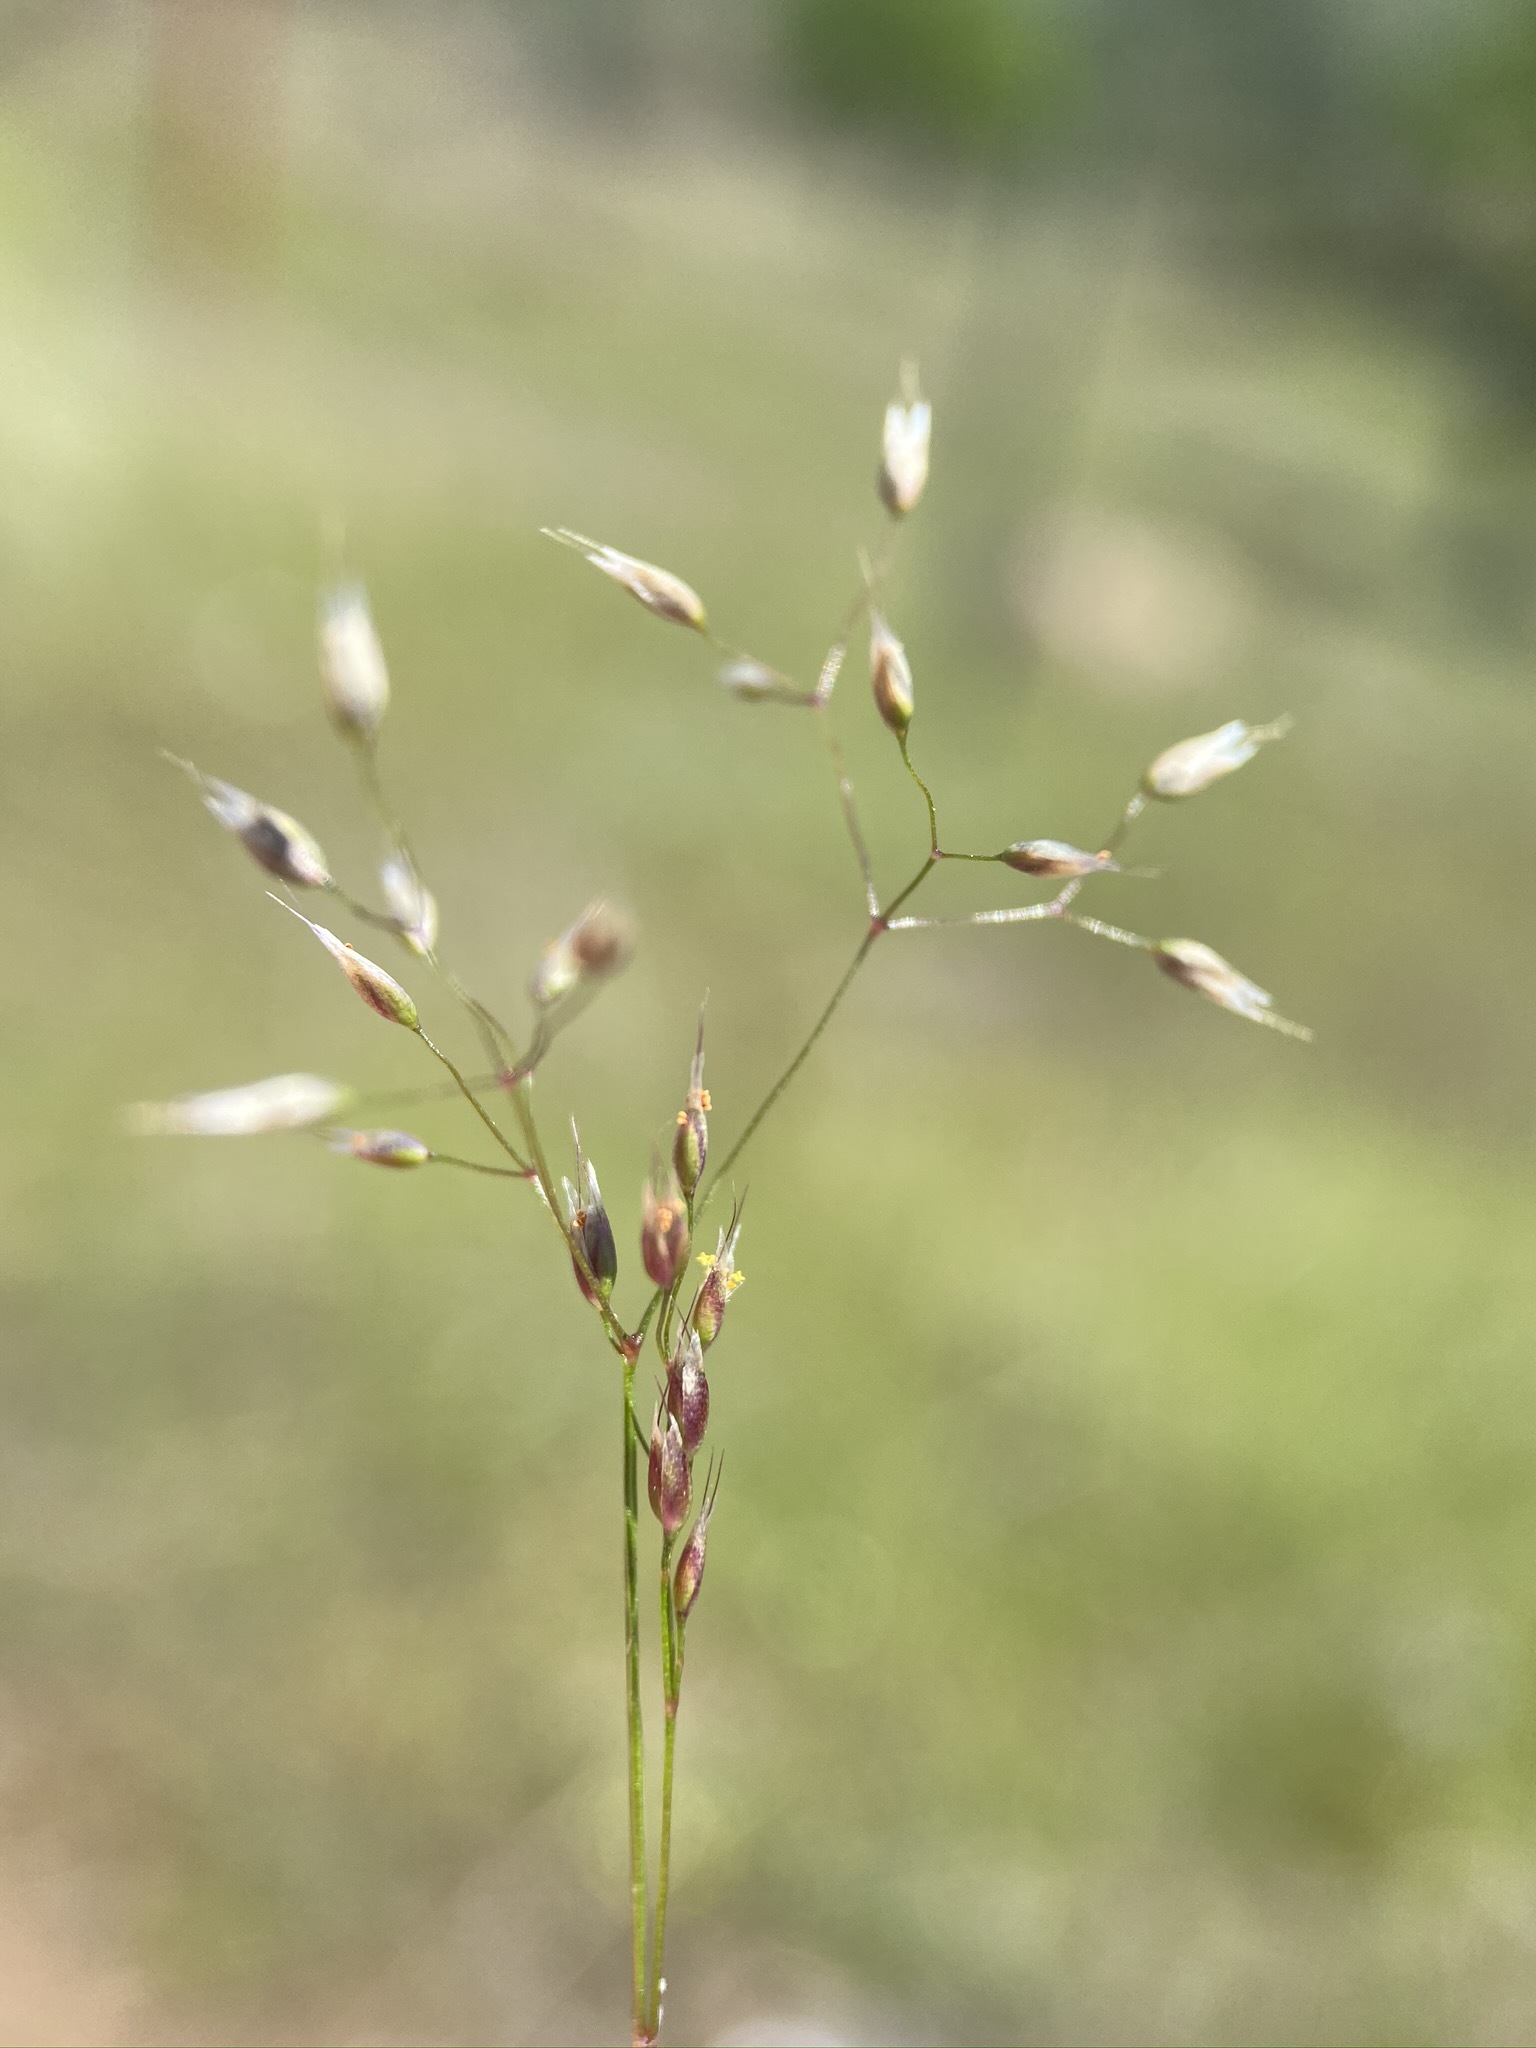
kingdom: Plantae
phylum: Tracheophyta
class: Liliopsida
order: Poales
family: Poaceae
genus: Aira
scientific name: Aira caryophyllea
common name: Silver hairgrass
